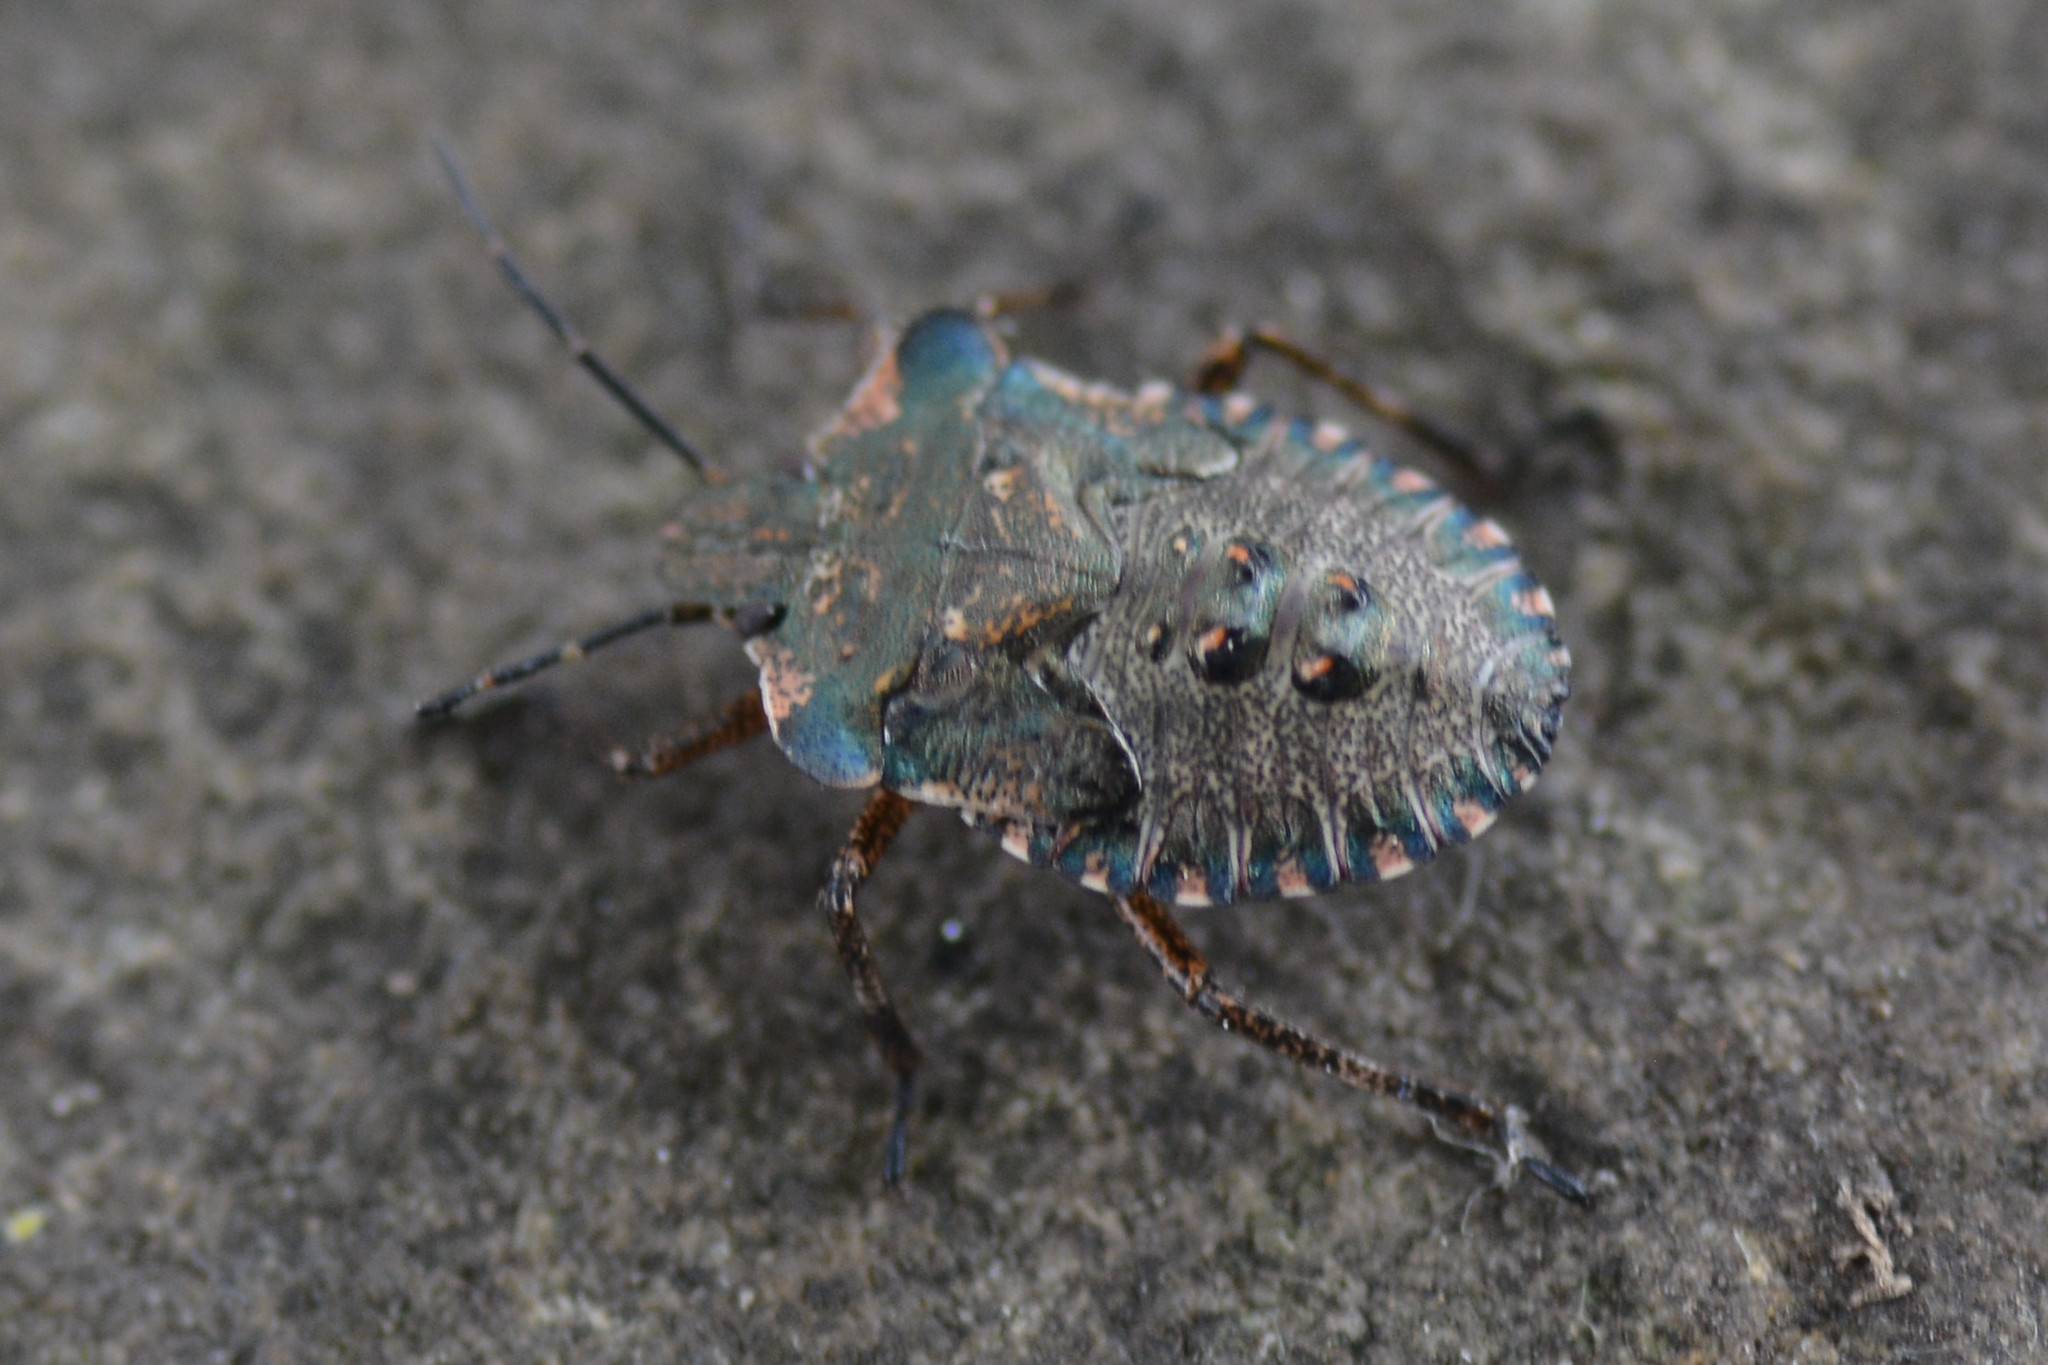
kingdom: Animalia
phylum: Arthropoda
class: Insecta
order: Hemiptera
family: Pentatomidae
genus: Pentatoma
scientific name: Pentatoma rufipes
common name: Forest bug
